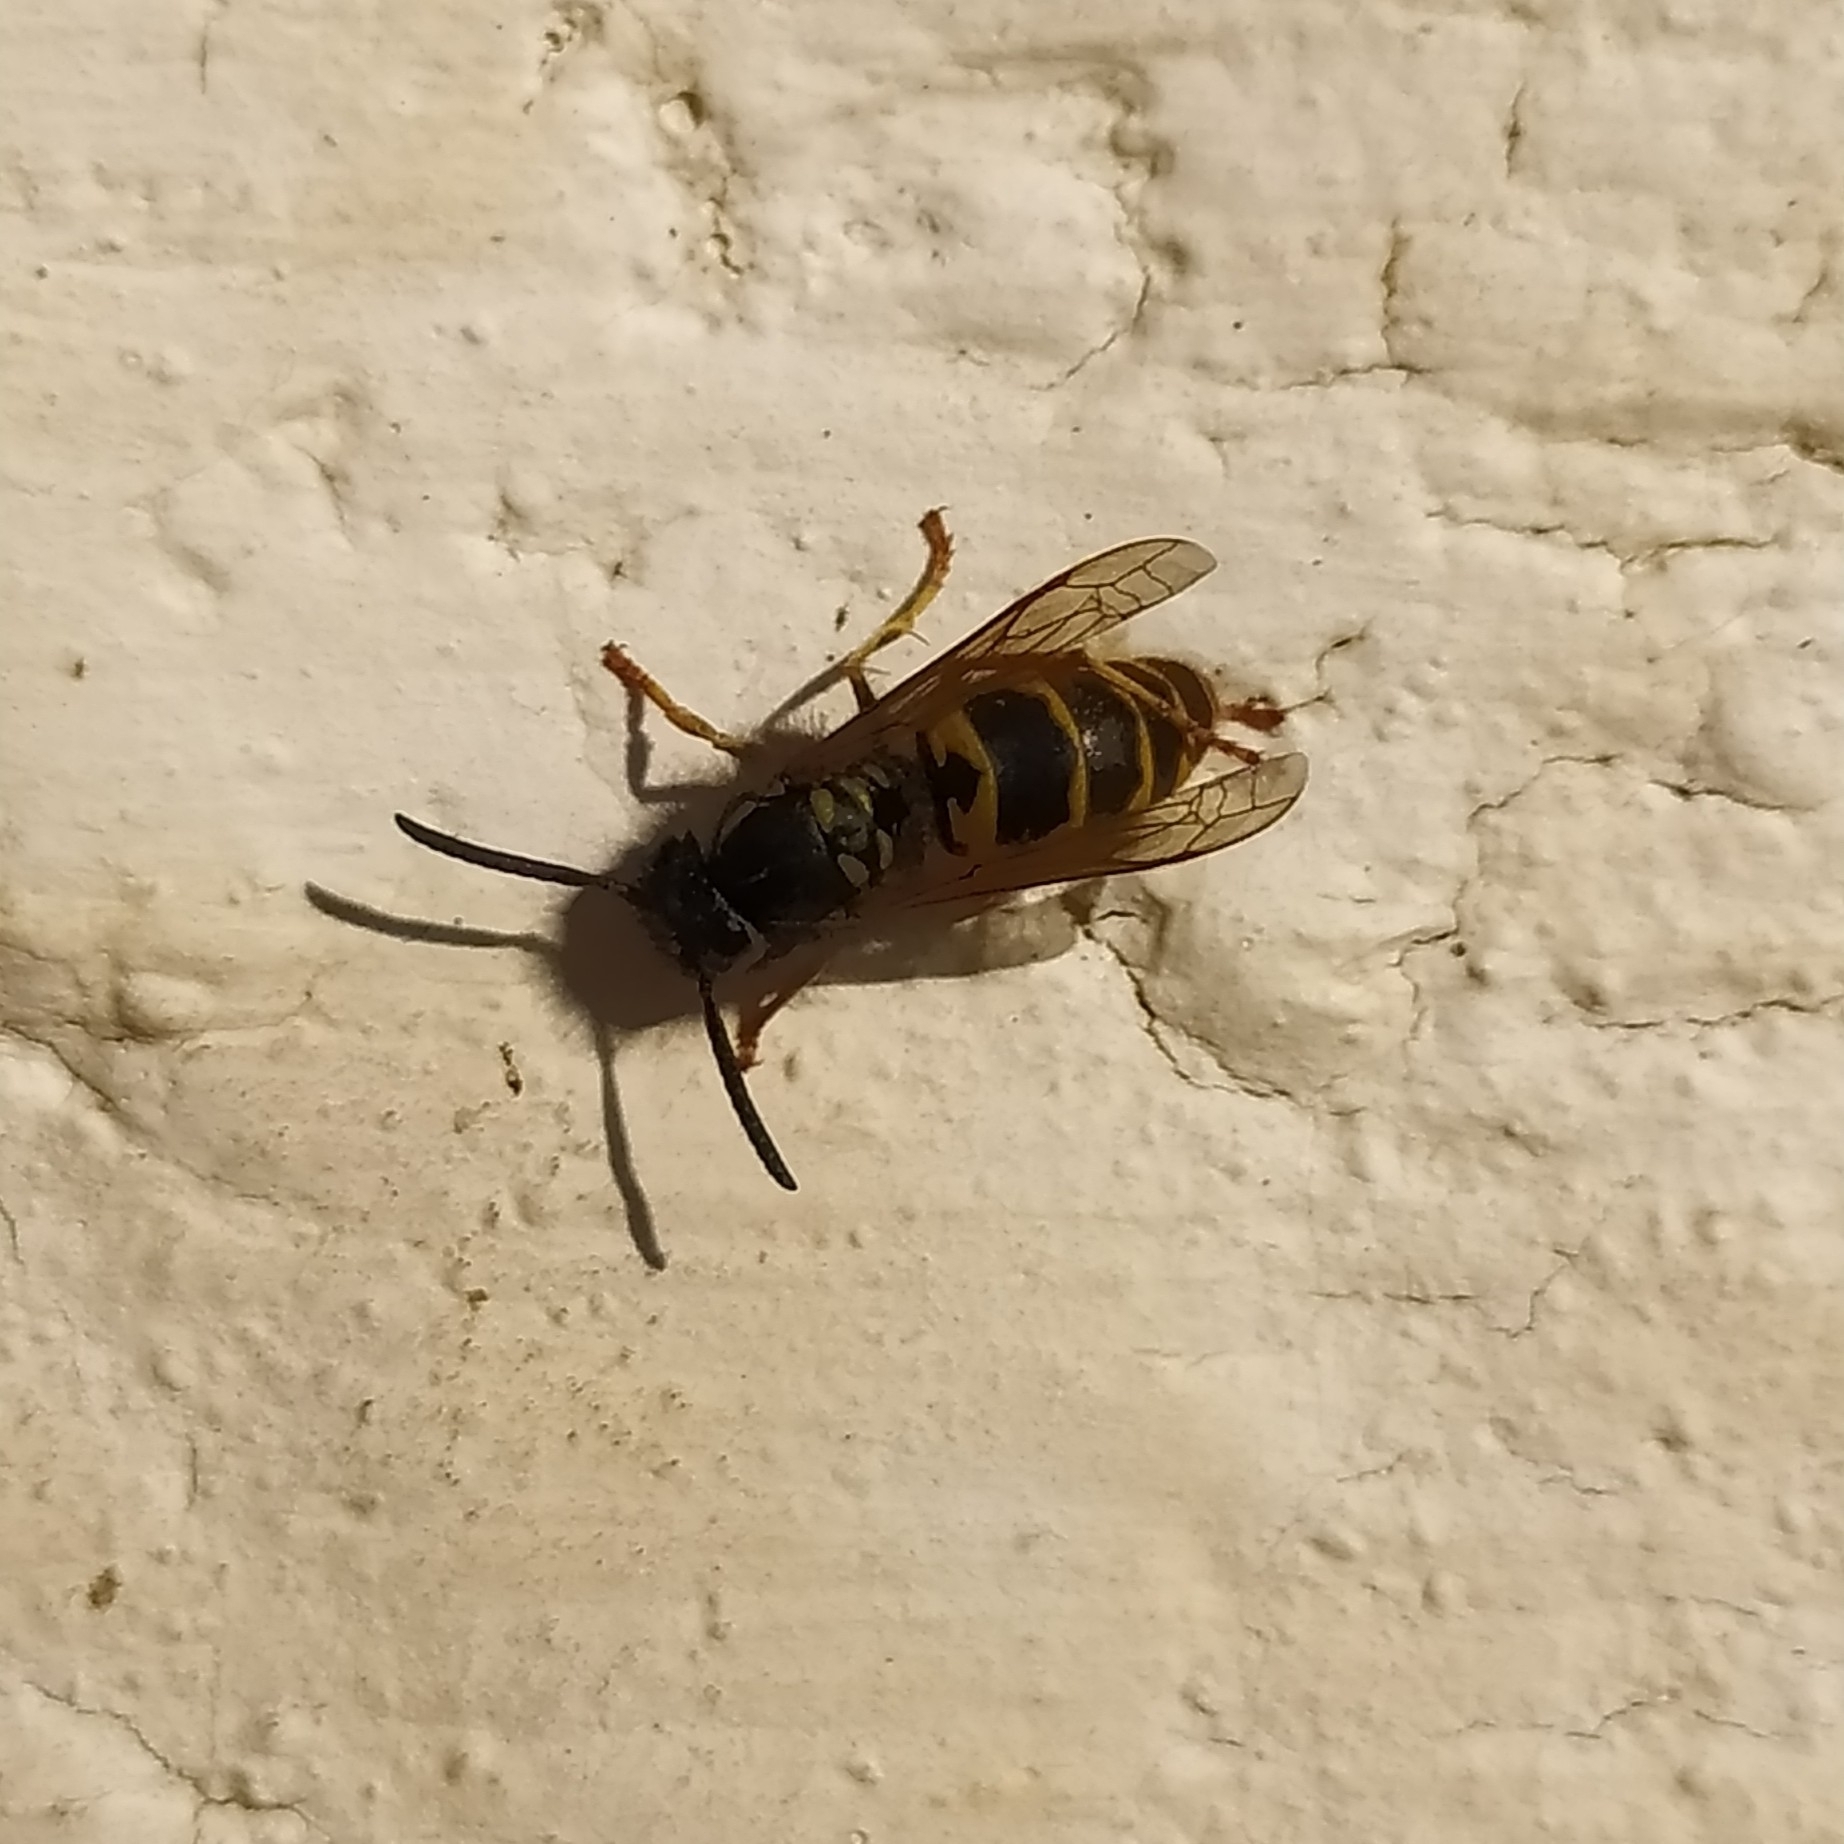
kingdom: Animalia
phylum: Arthropoda
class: Insecta
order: Hymenoptera
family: Vespidae
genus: Vespula
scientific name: Vespula vulgaris
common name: Common wasp
